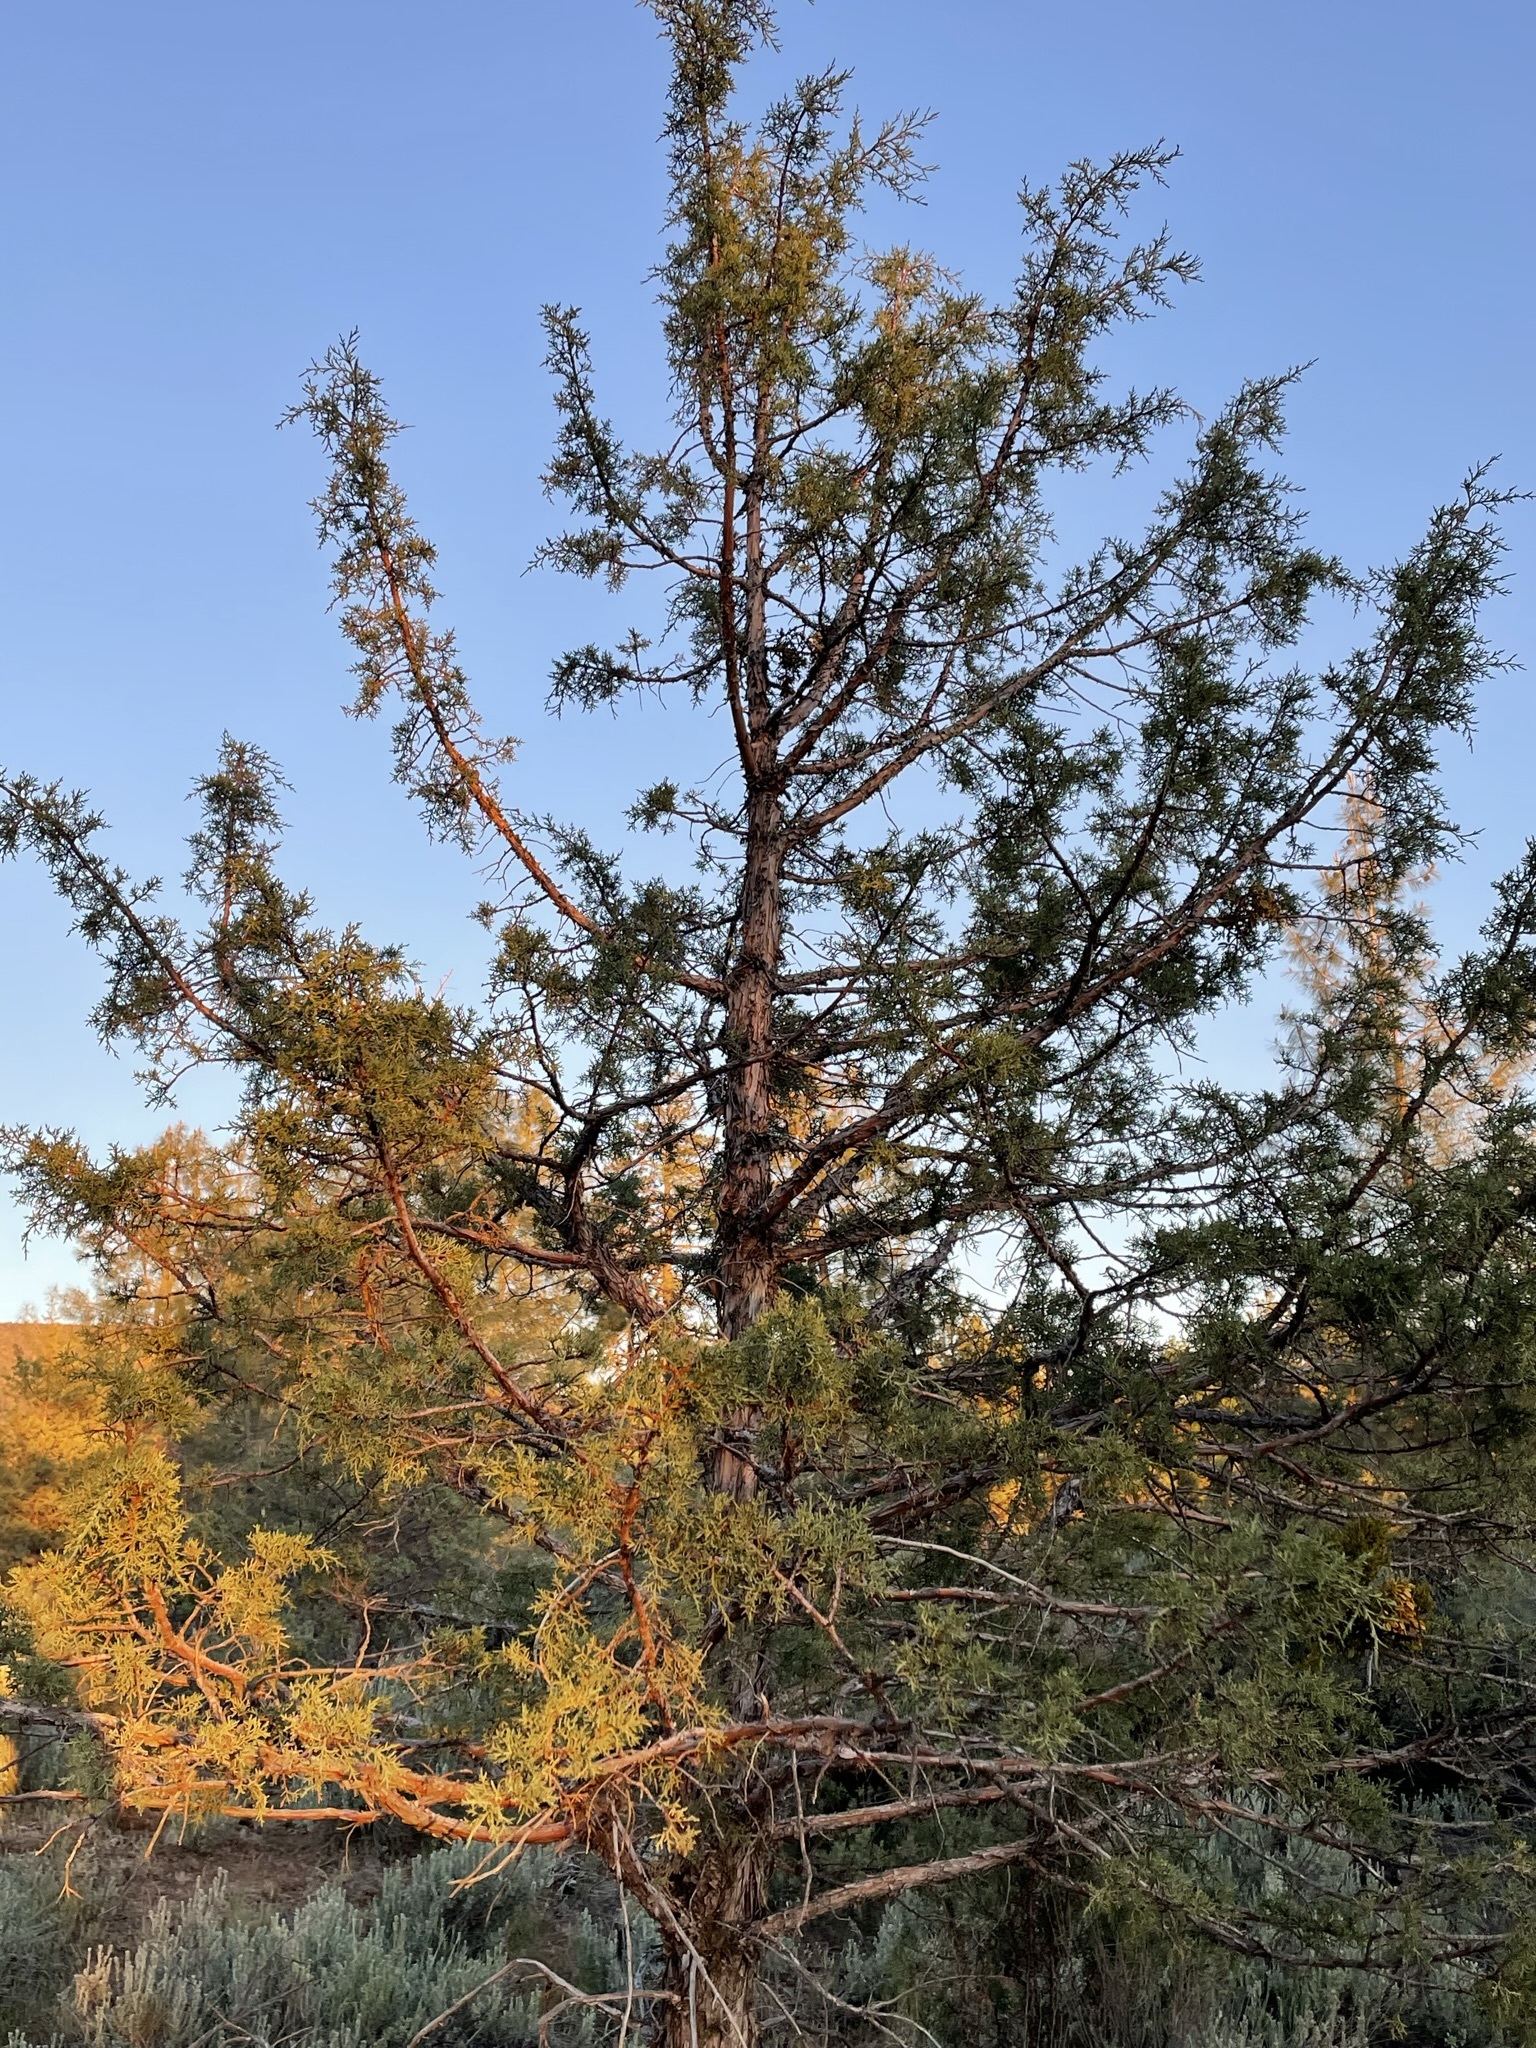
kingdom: Plantae
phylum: Tracheophyta
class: Pinopsida
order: Pinales
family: Cupressaceae
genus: Juniperus
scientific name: Juniperus occidentalis
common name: Western juniper
